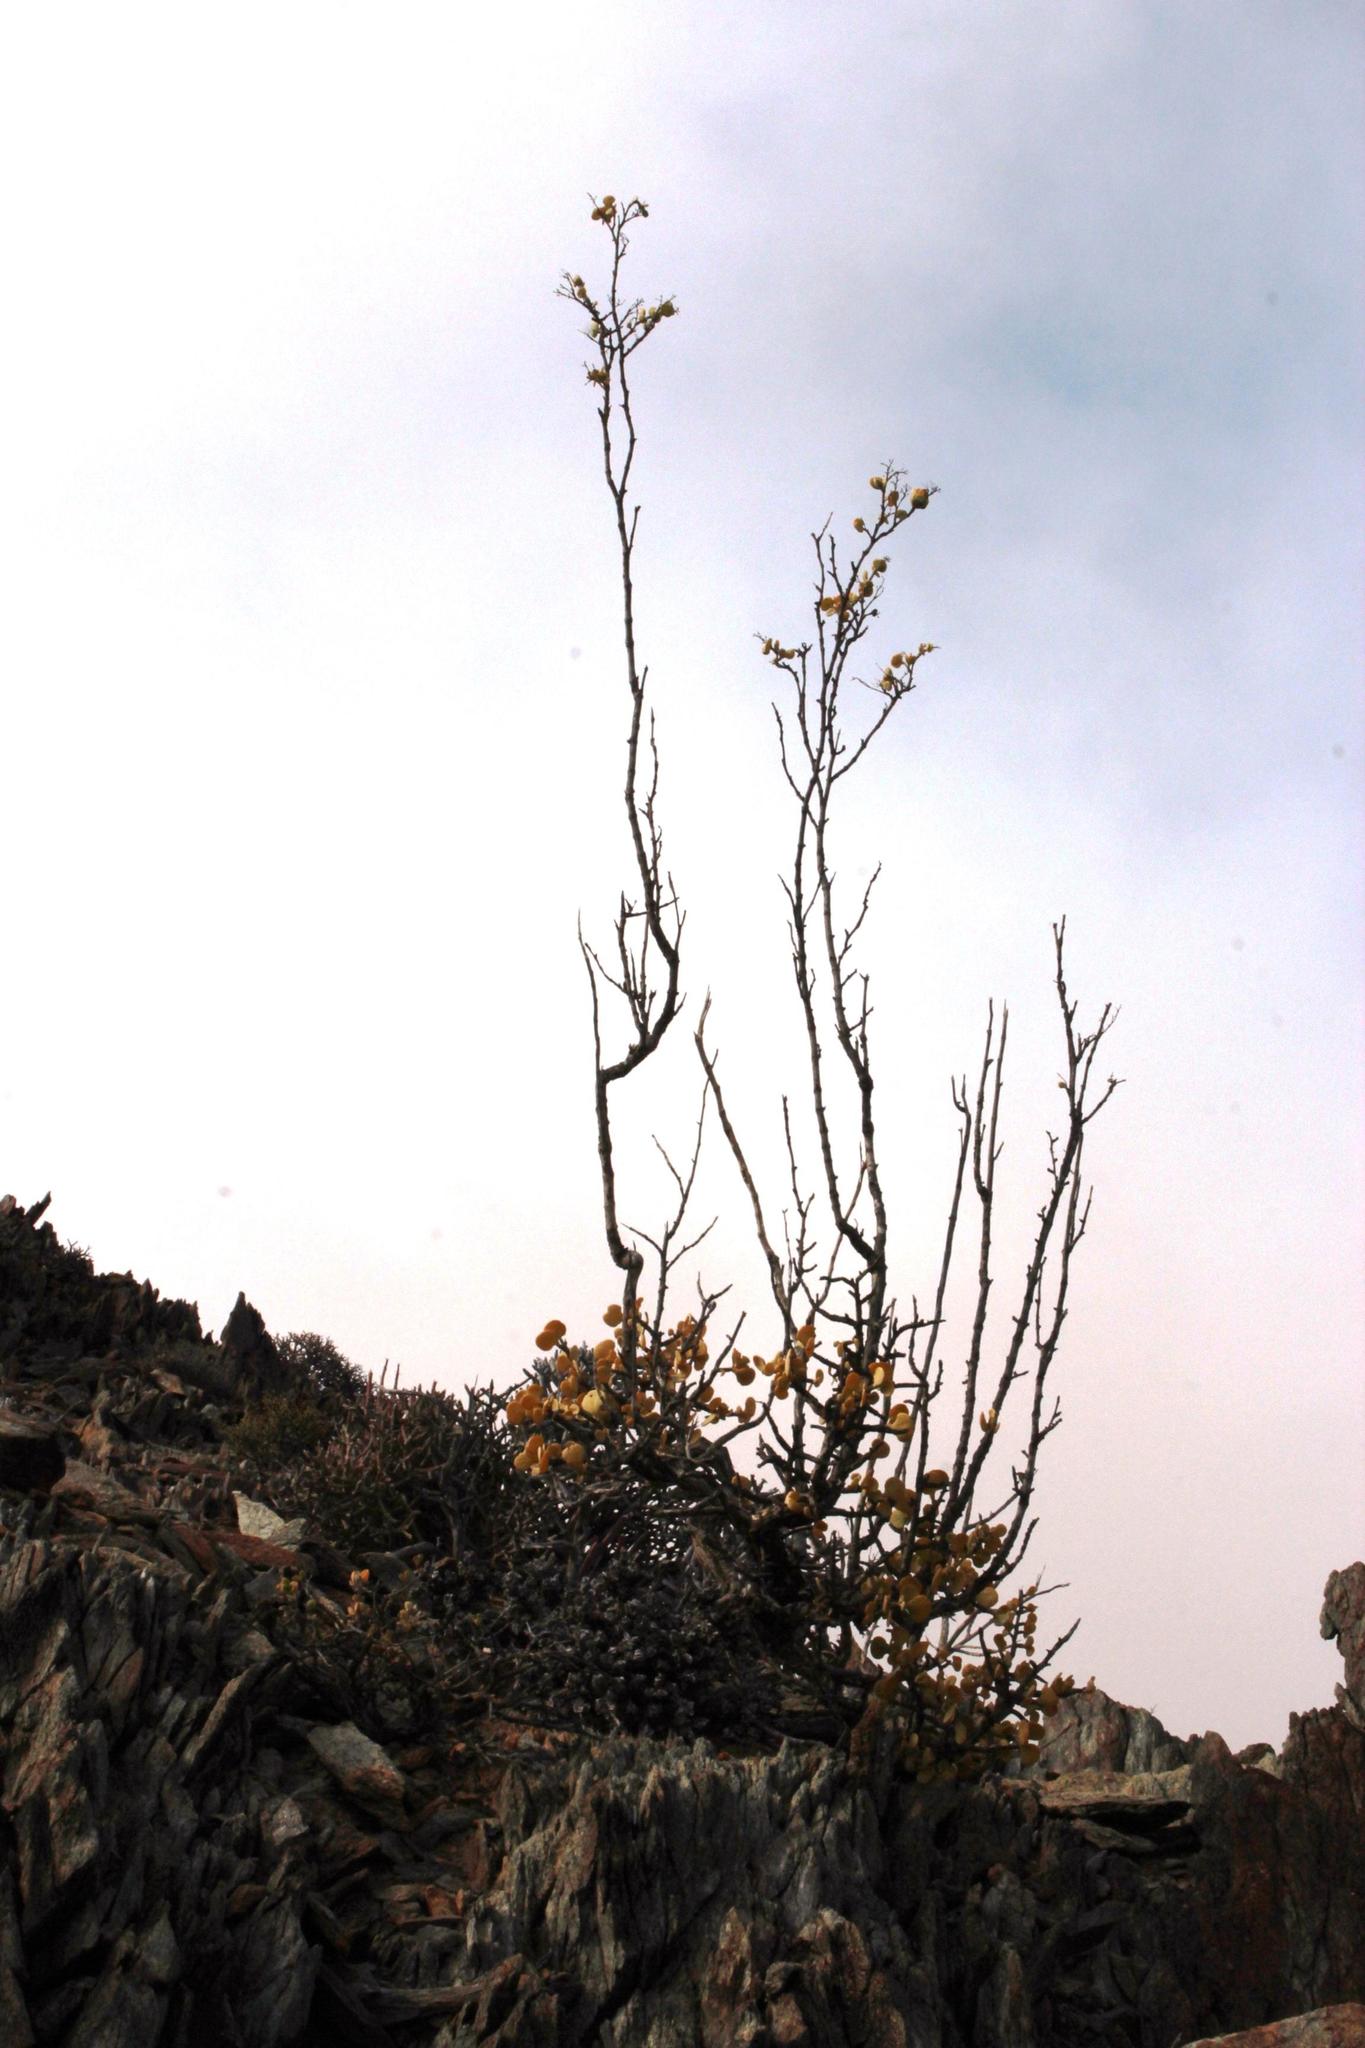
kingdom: Plantae
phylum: Tracheophyta
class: Magnoliopsida
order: Zygophyllales
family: Zygophyllaceae
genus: Tetraena
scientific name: Tetraena prismatocarpa
